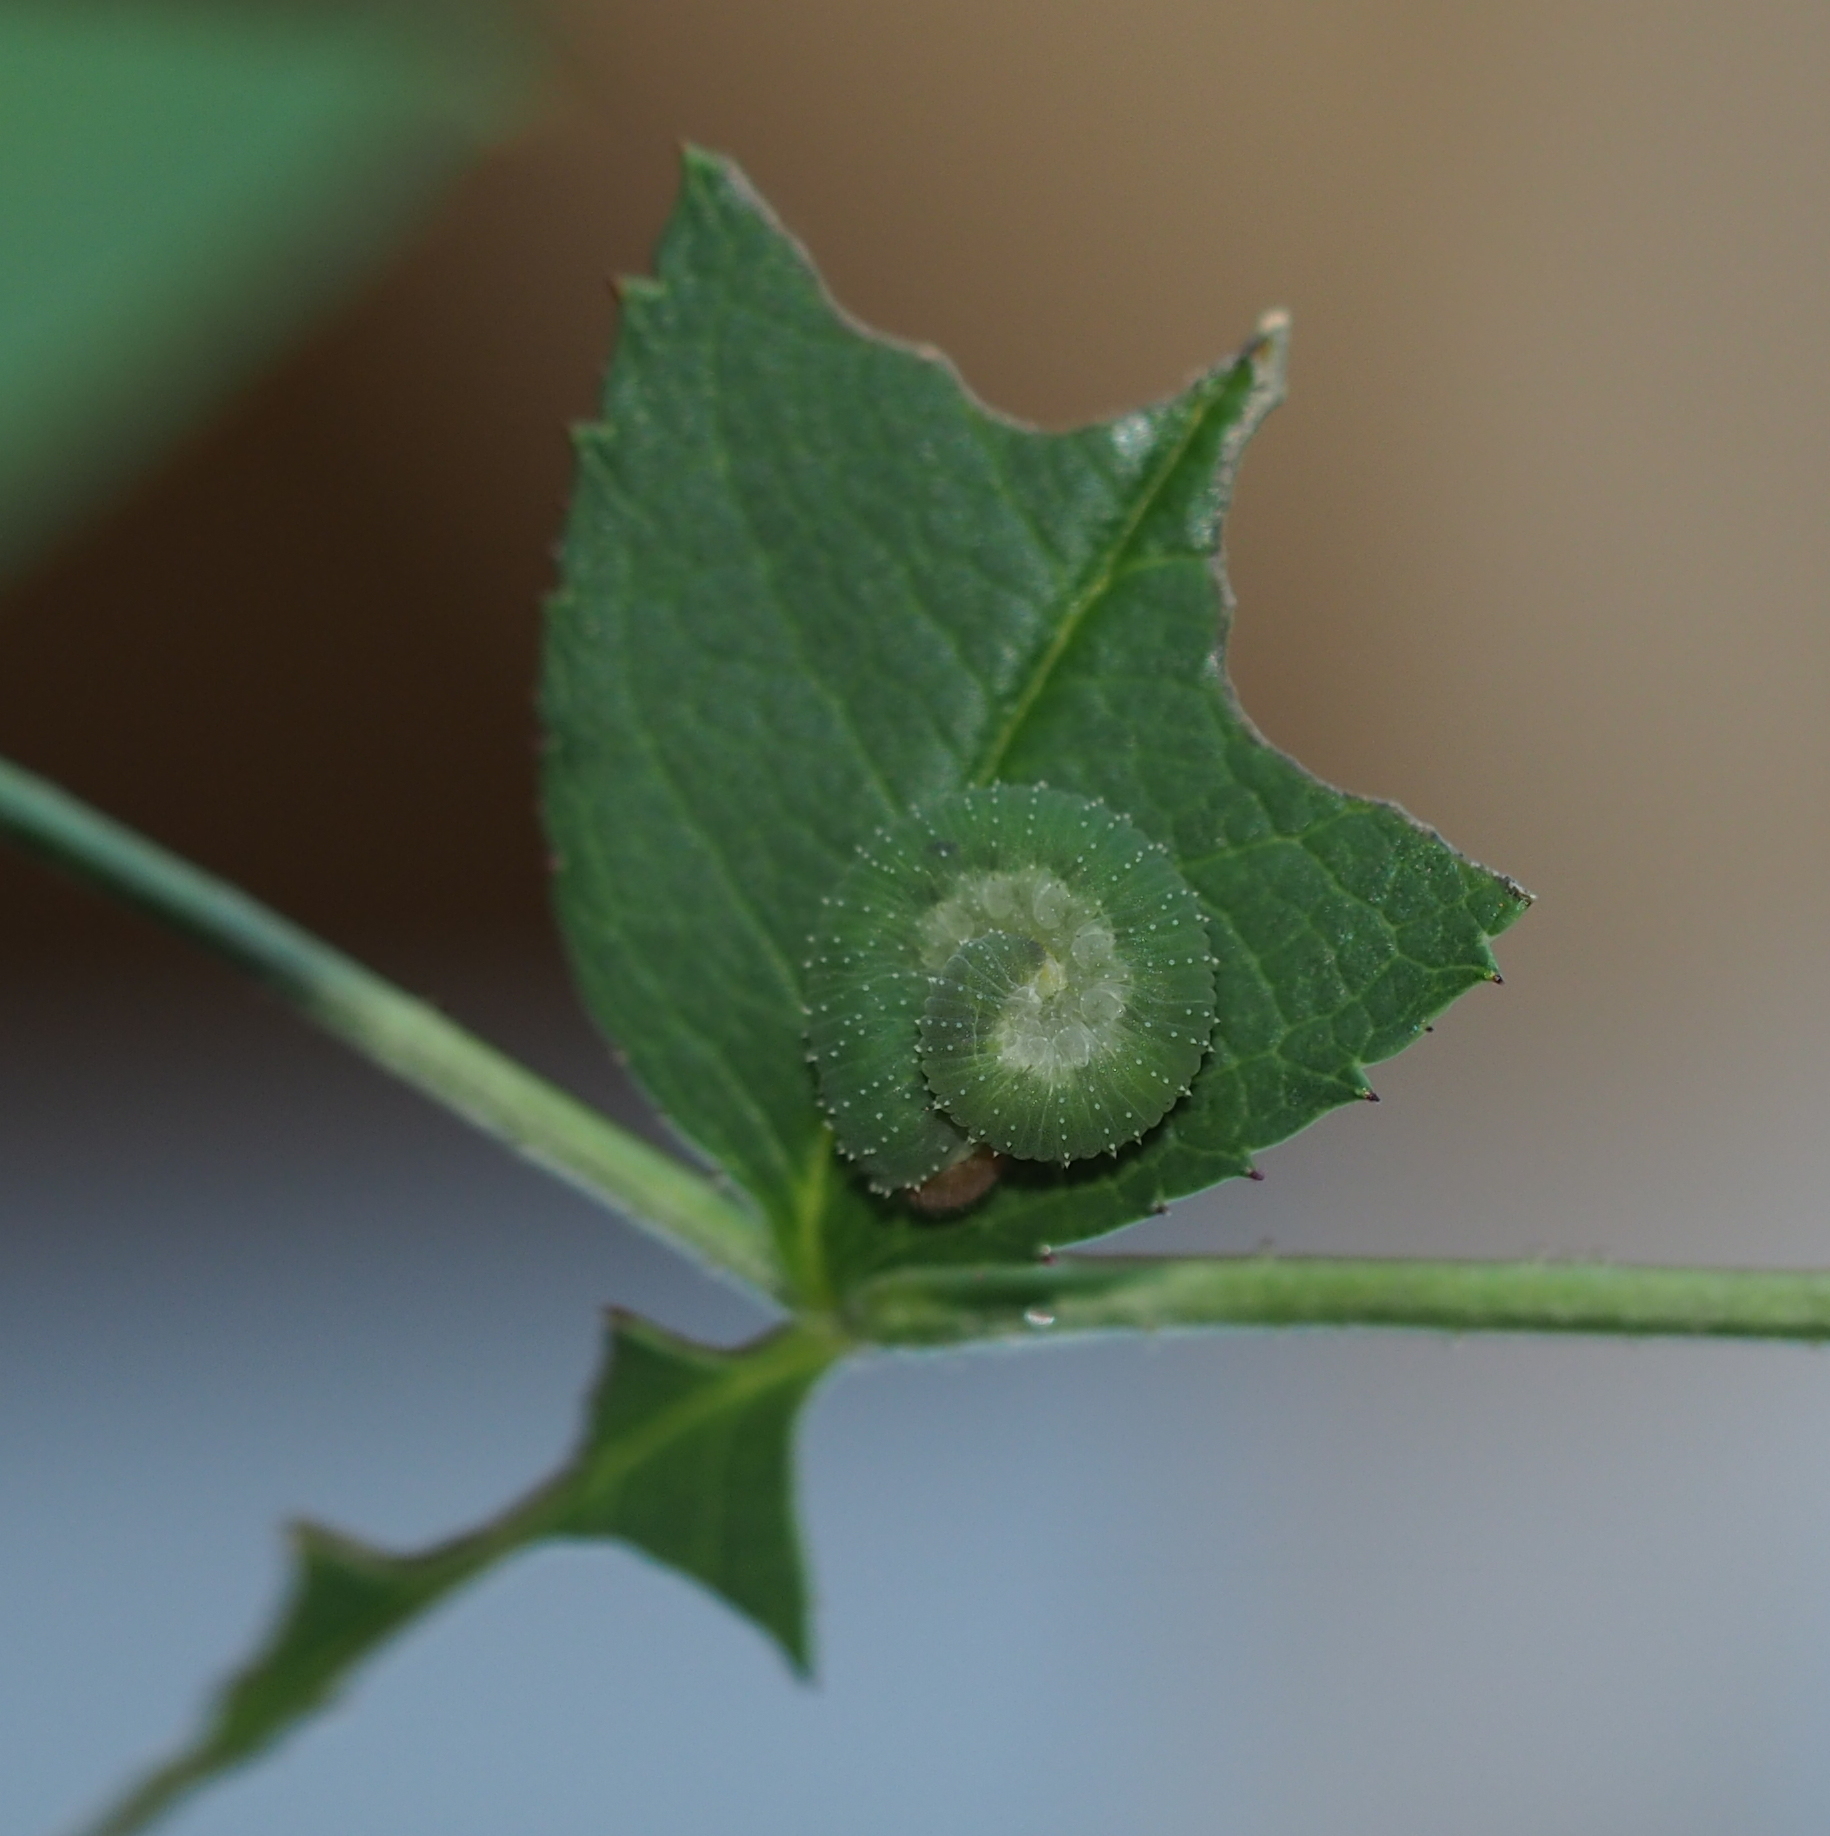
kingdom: Animalia
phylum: Arthropoda
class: Insecta
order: Hymenoptera
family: Tenthredinidae
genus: Allantus
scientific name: Allantus
